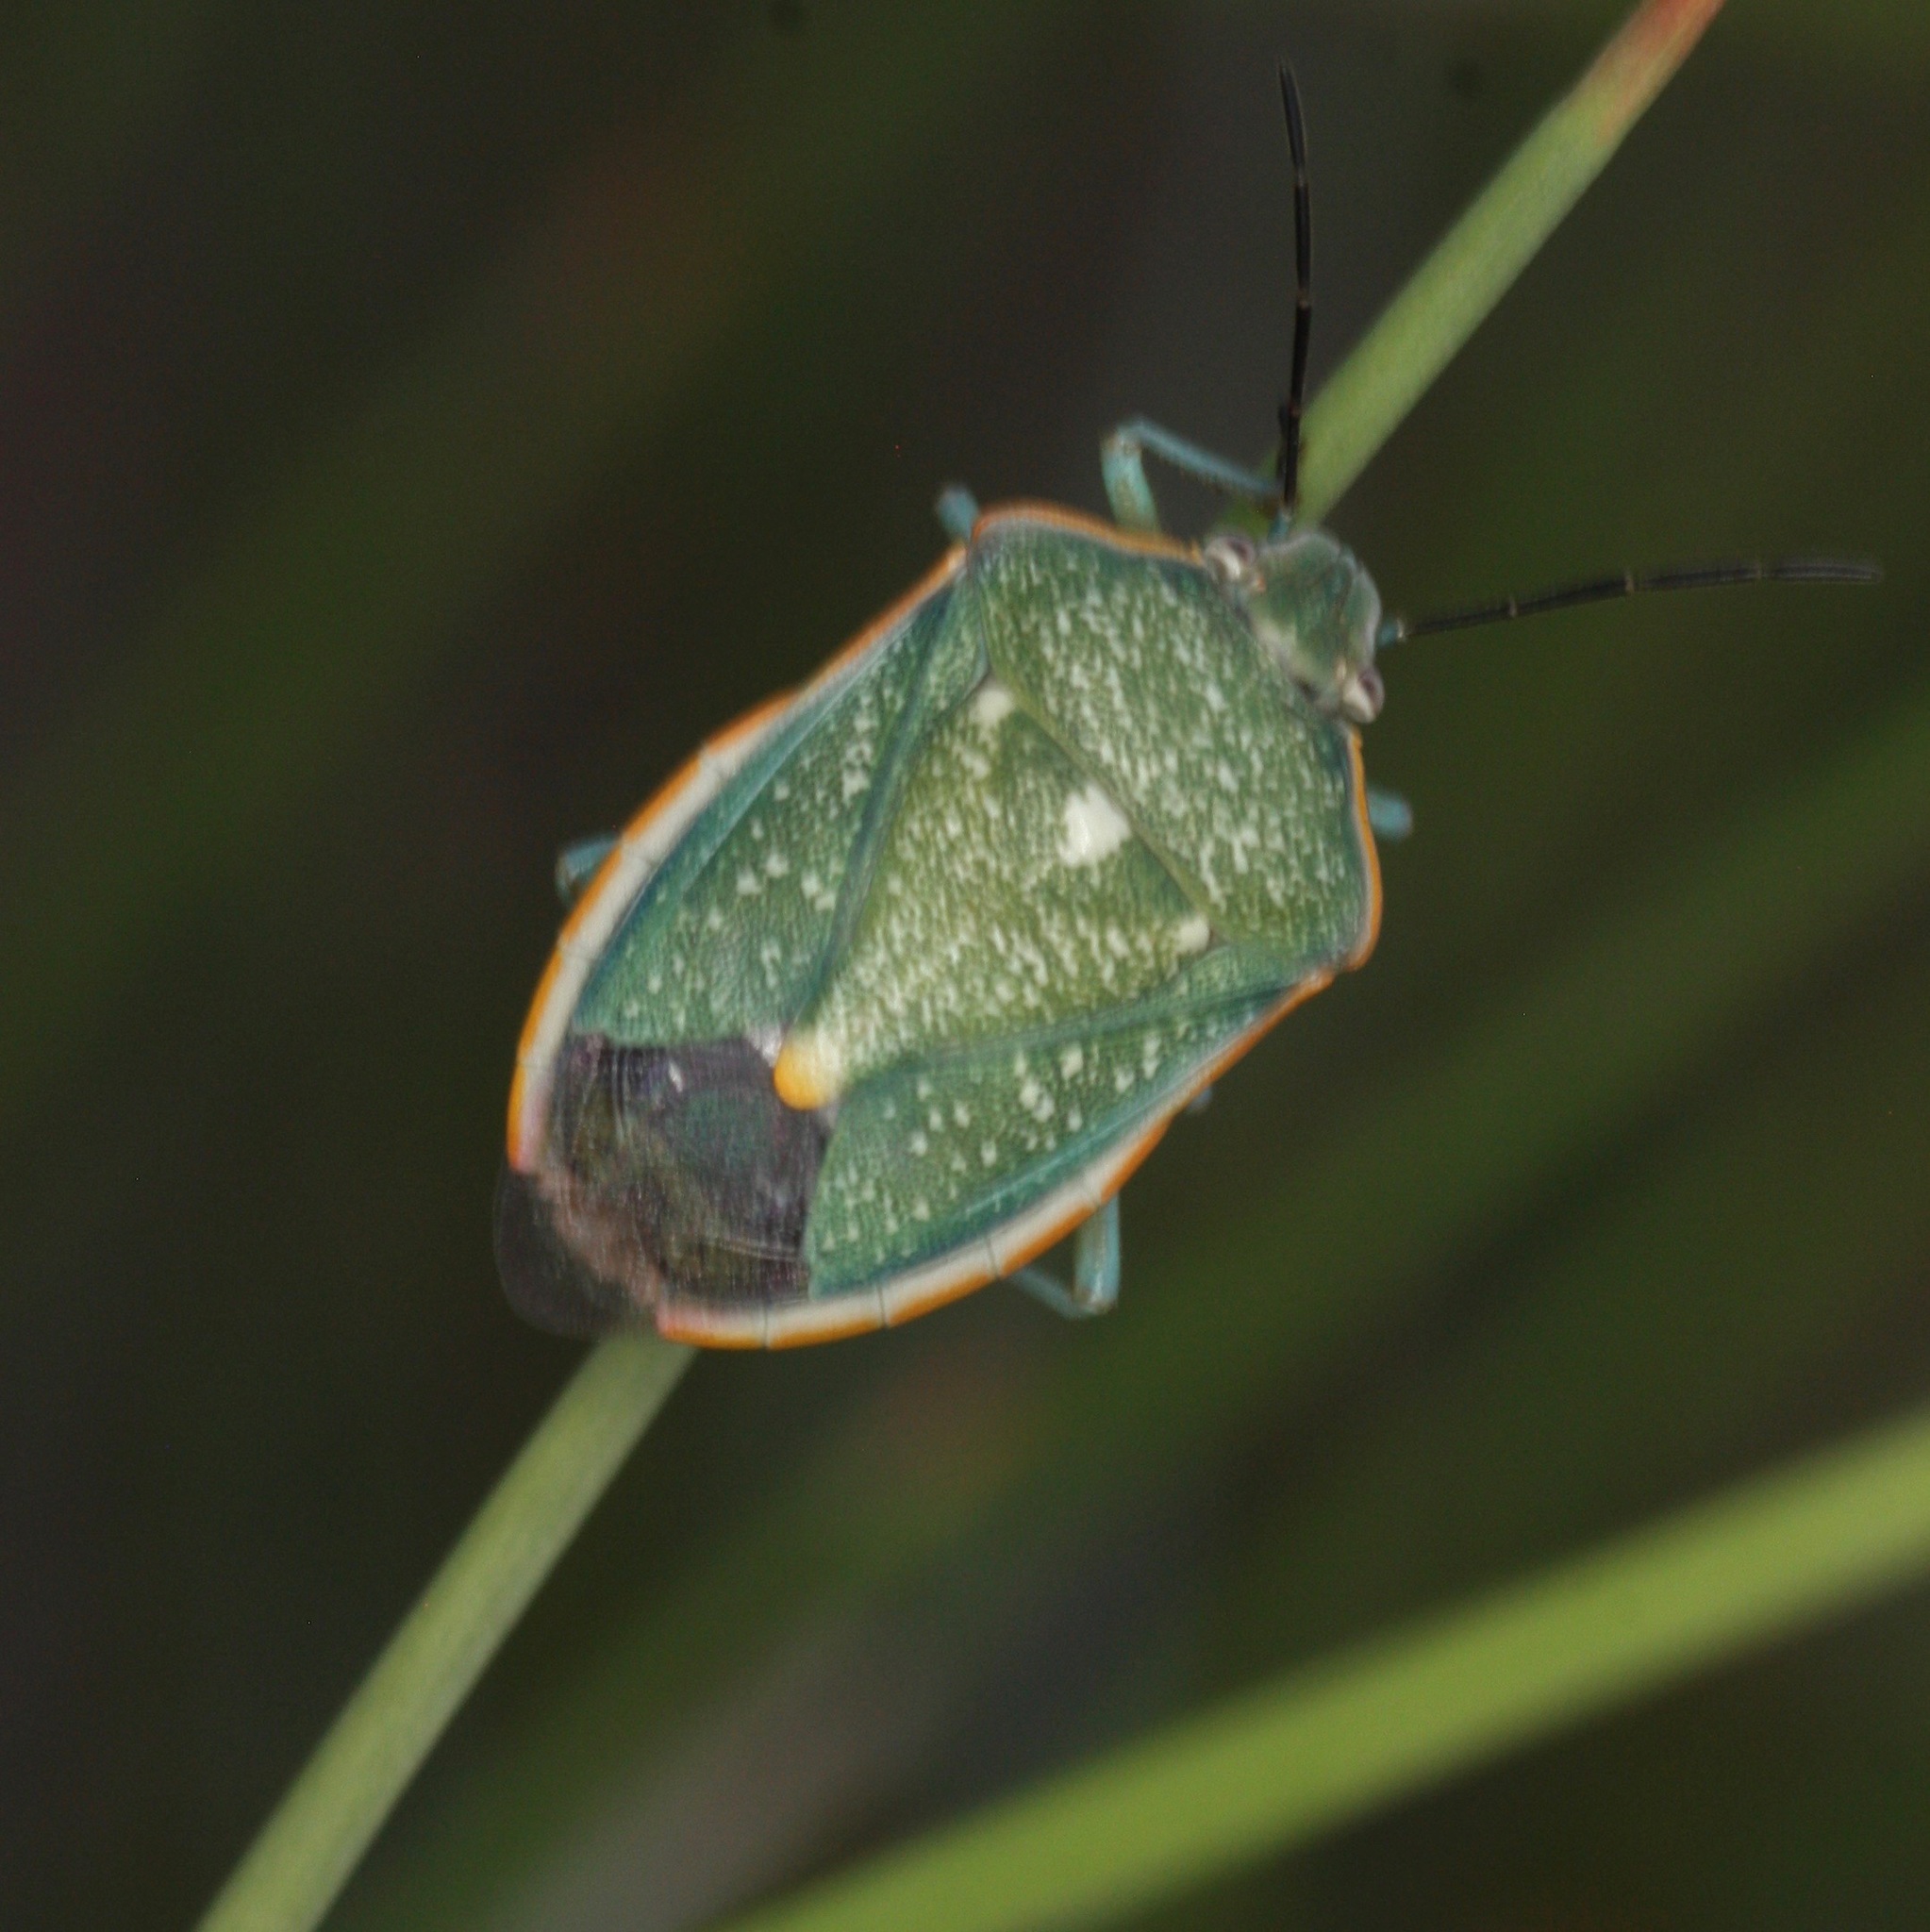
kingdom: Animalia
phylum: Arthropoda
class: Insecta
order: Hemiptera
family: Pentatomidae
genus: Chlorochroa
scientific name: Chlorochroa sayi
